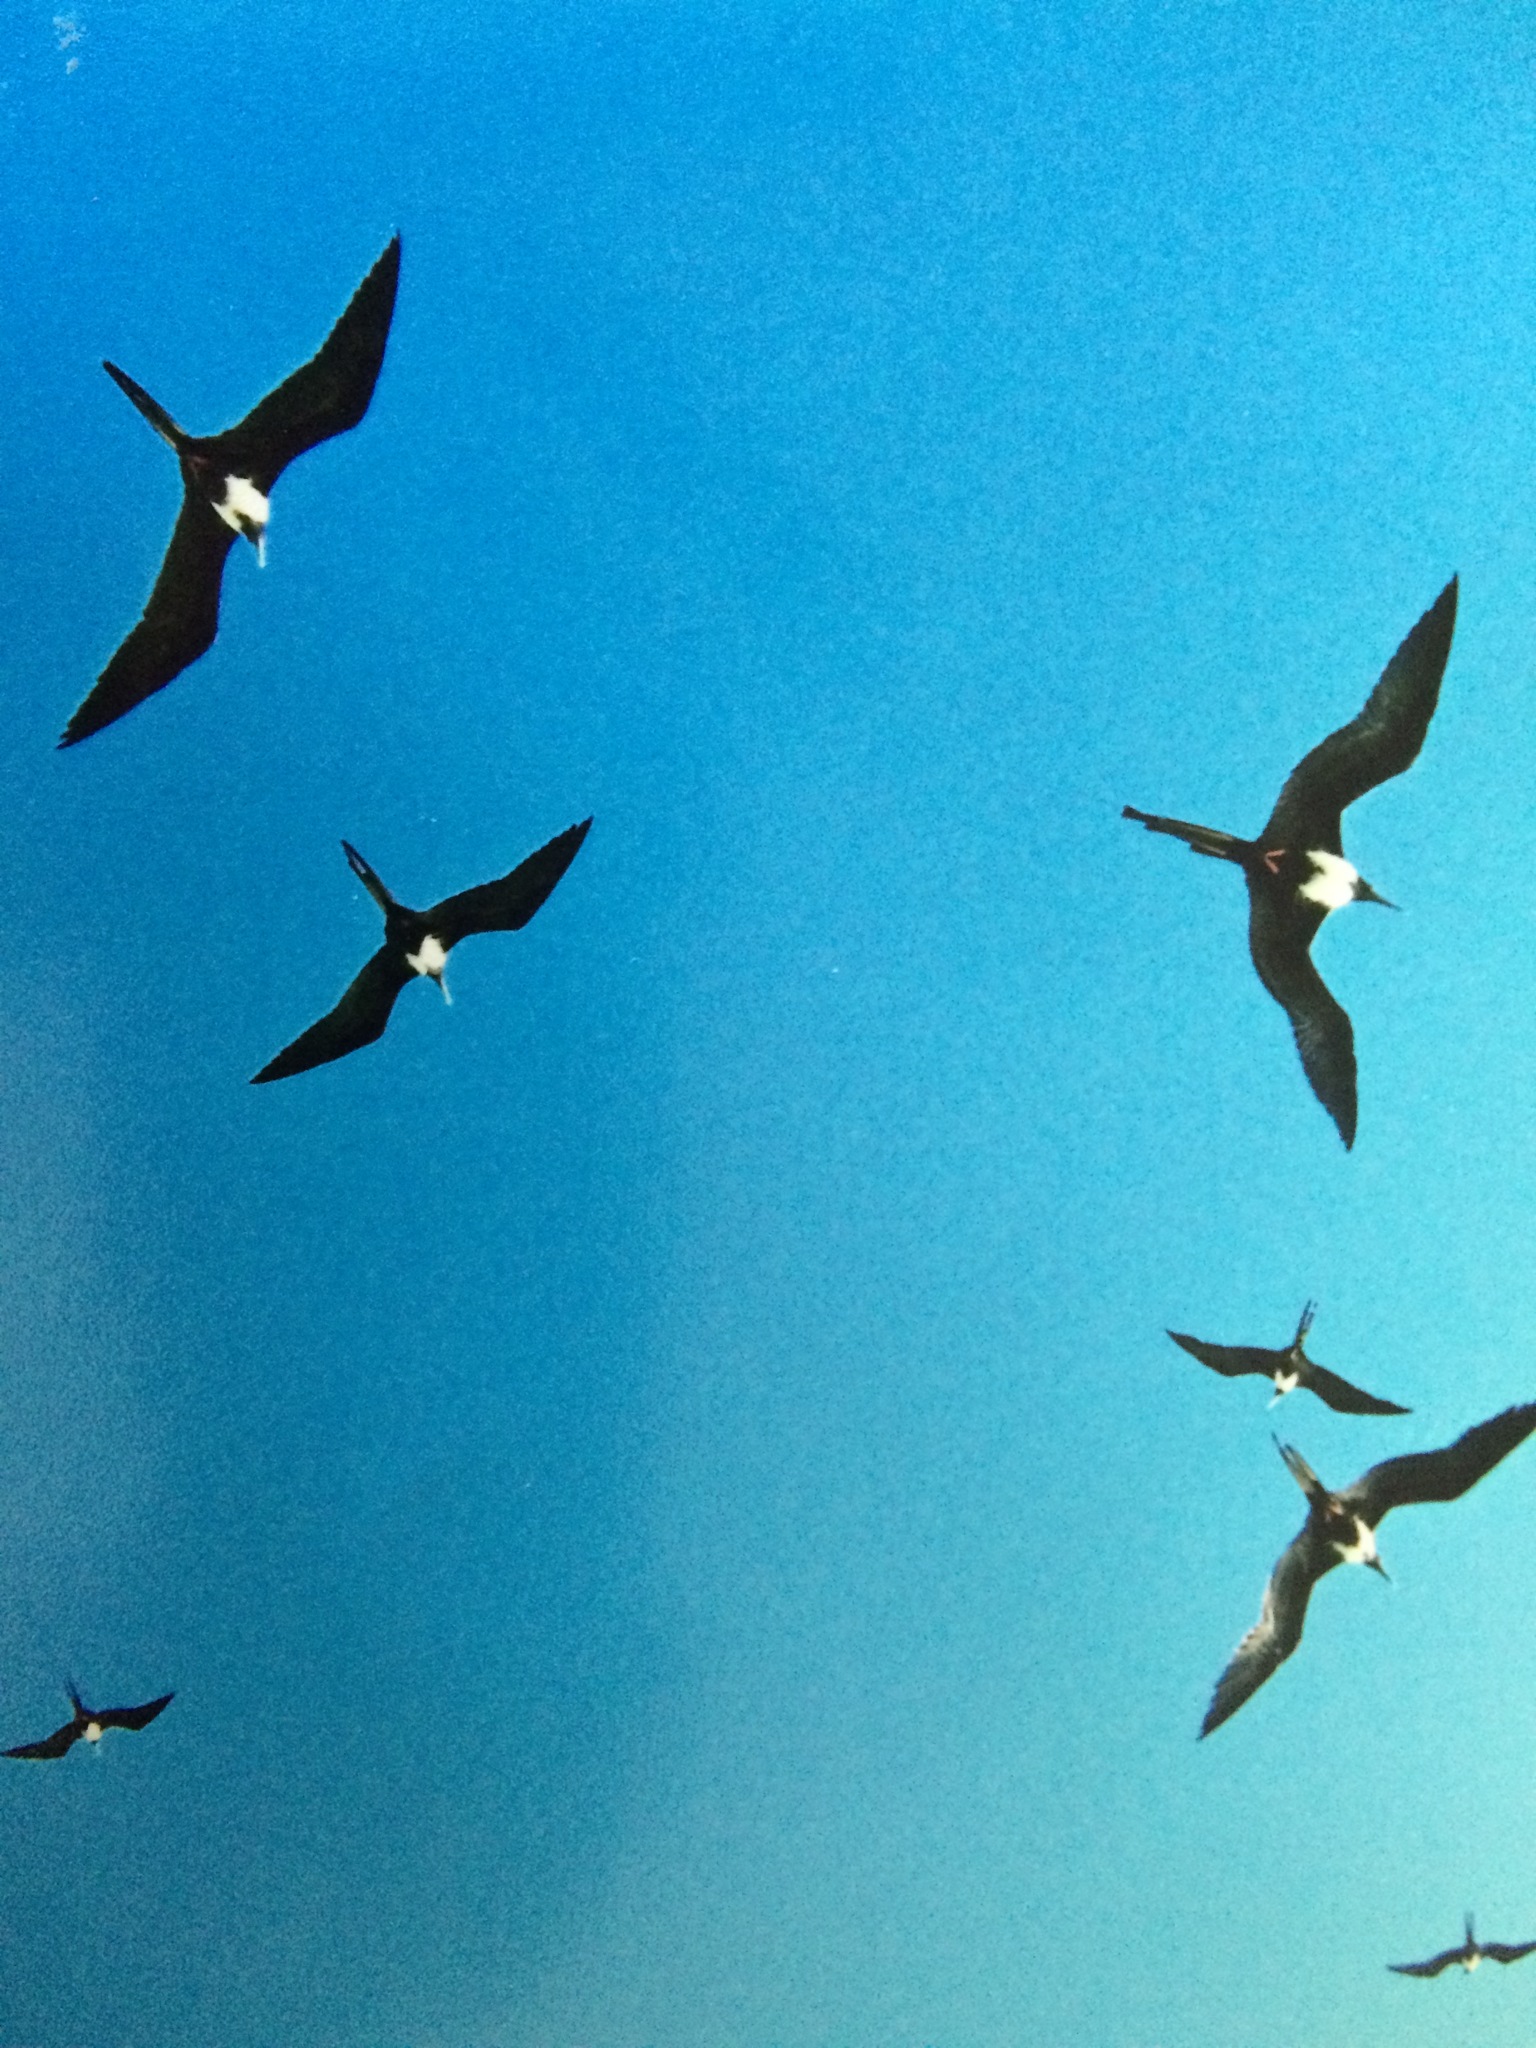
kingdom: Animalia
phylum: Chordata
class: Aves
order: Suliformes
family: Fregatidae
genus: Fregata
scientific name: Fregata magnificens
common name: Magnificent frigatebird
